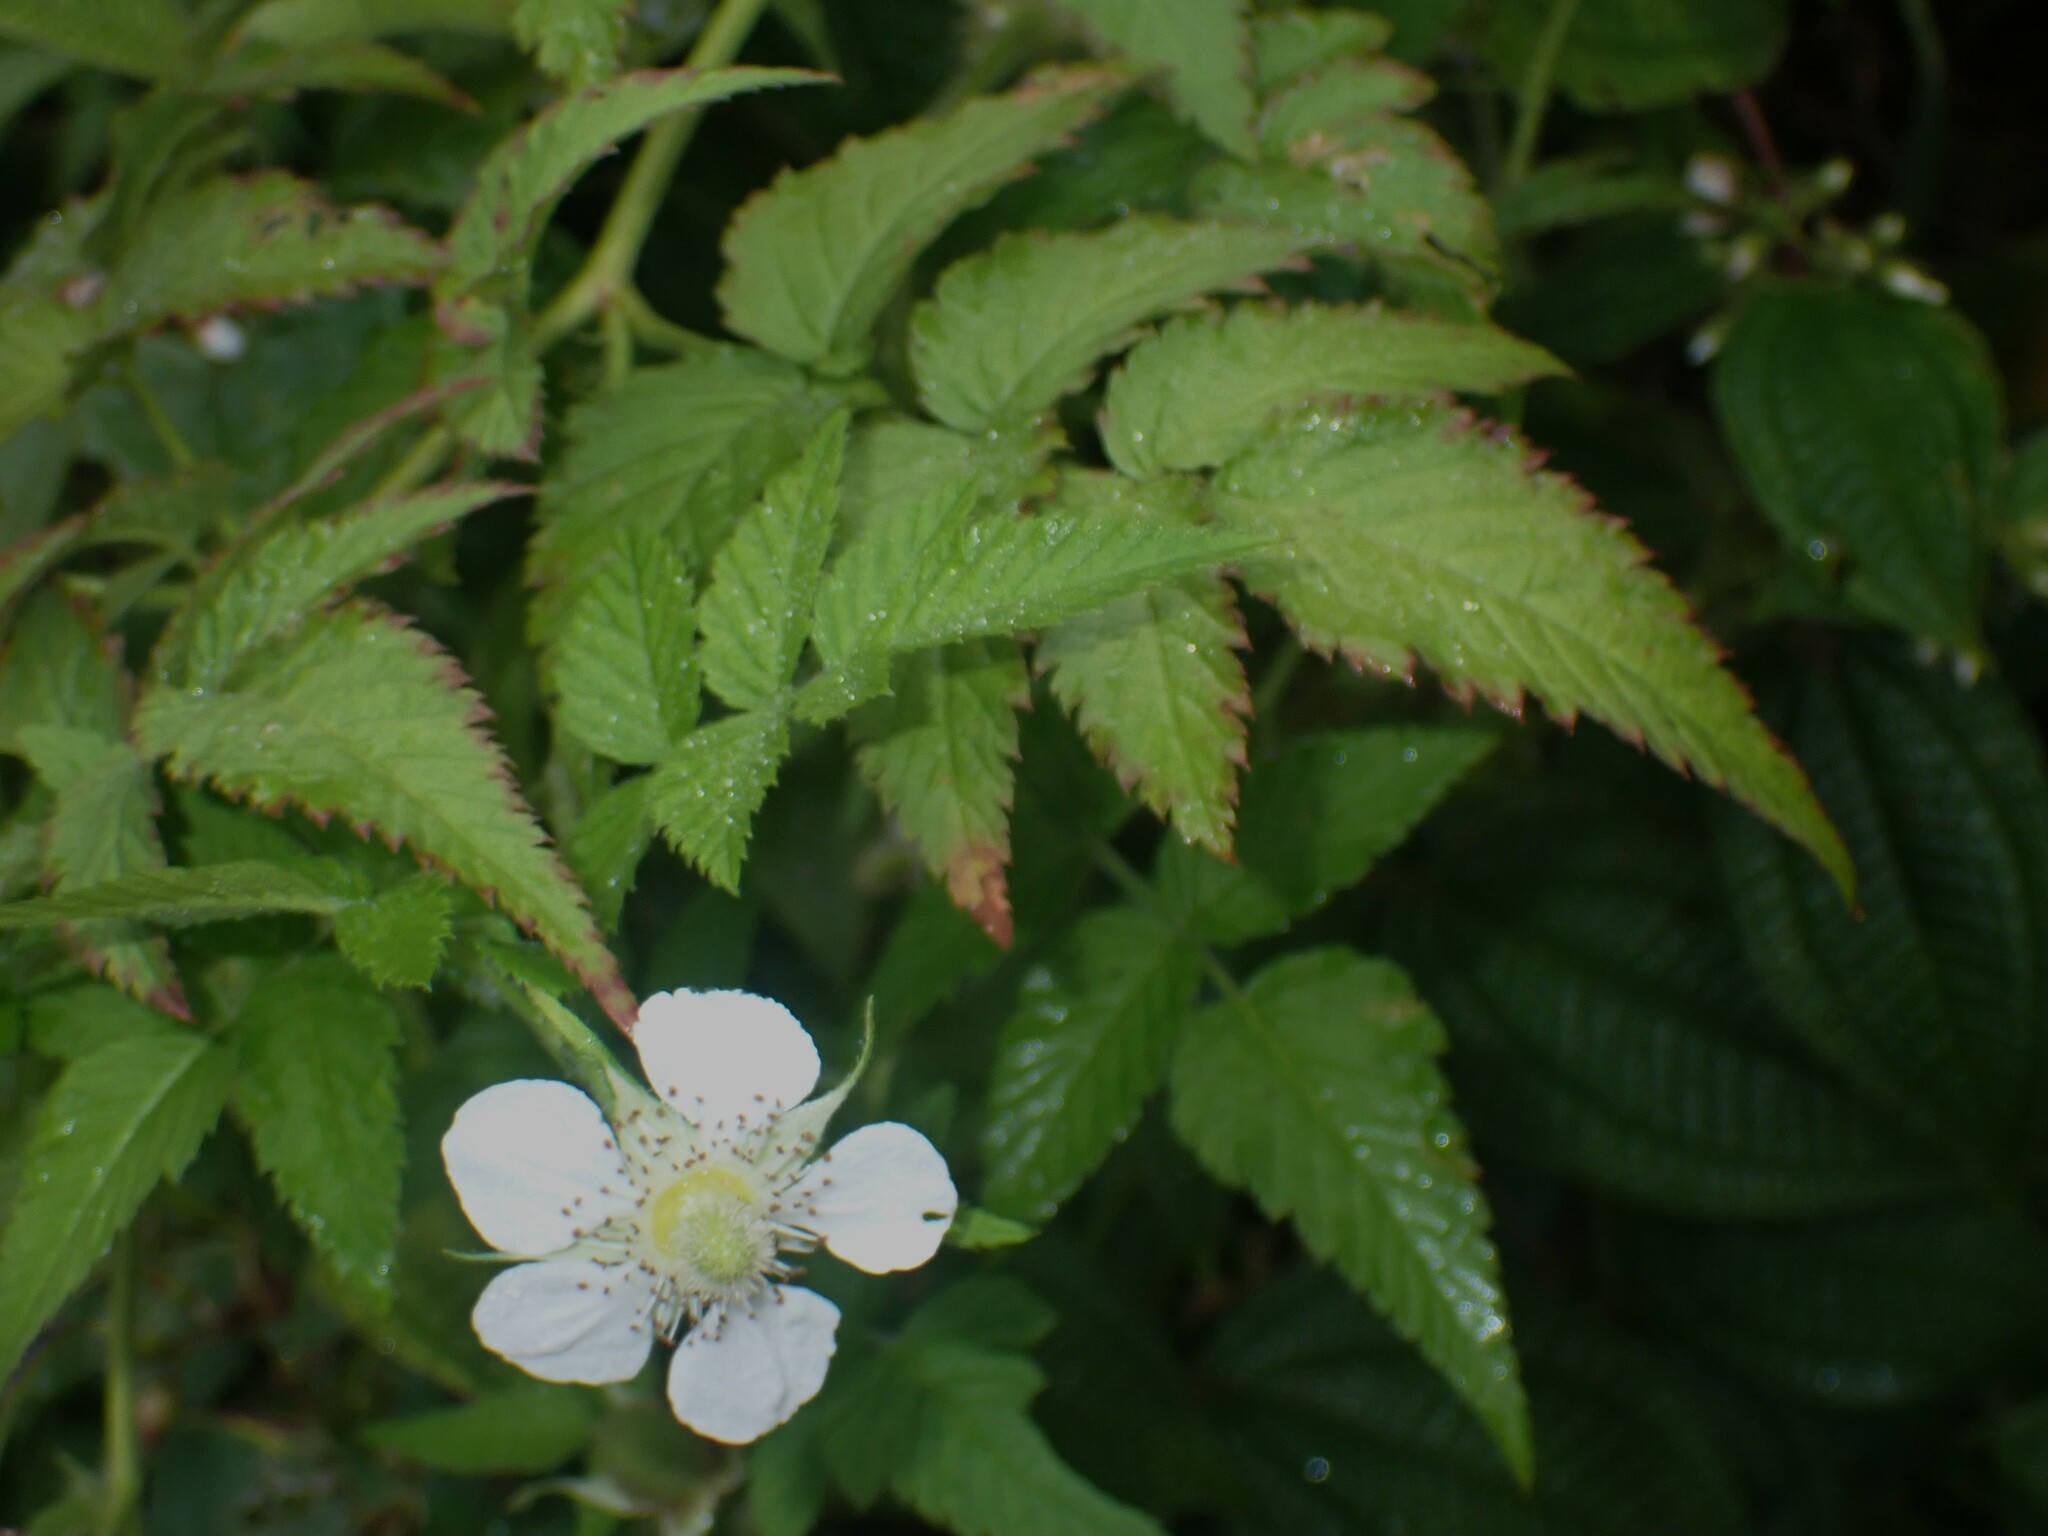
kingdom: Plantae
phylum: Tracheophyta
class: Magnoliopsida
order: Rosales
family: Rosaceae
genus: Rubus
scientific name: Rubus rosifolius
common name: Roseleaf raspberry
